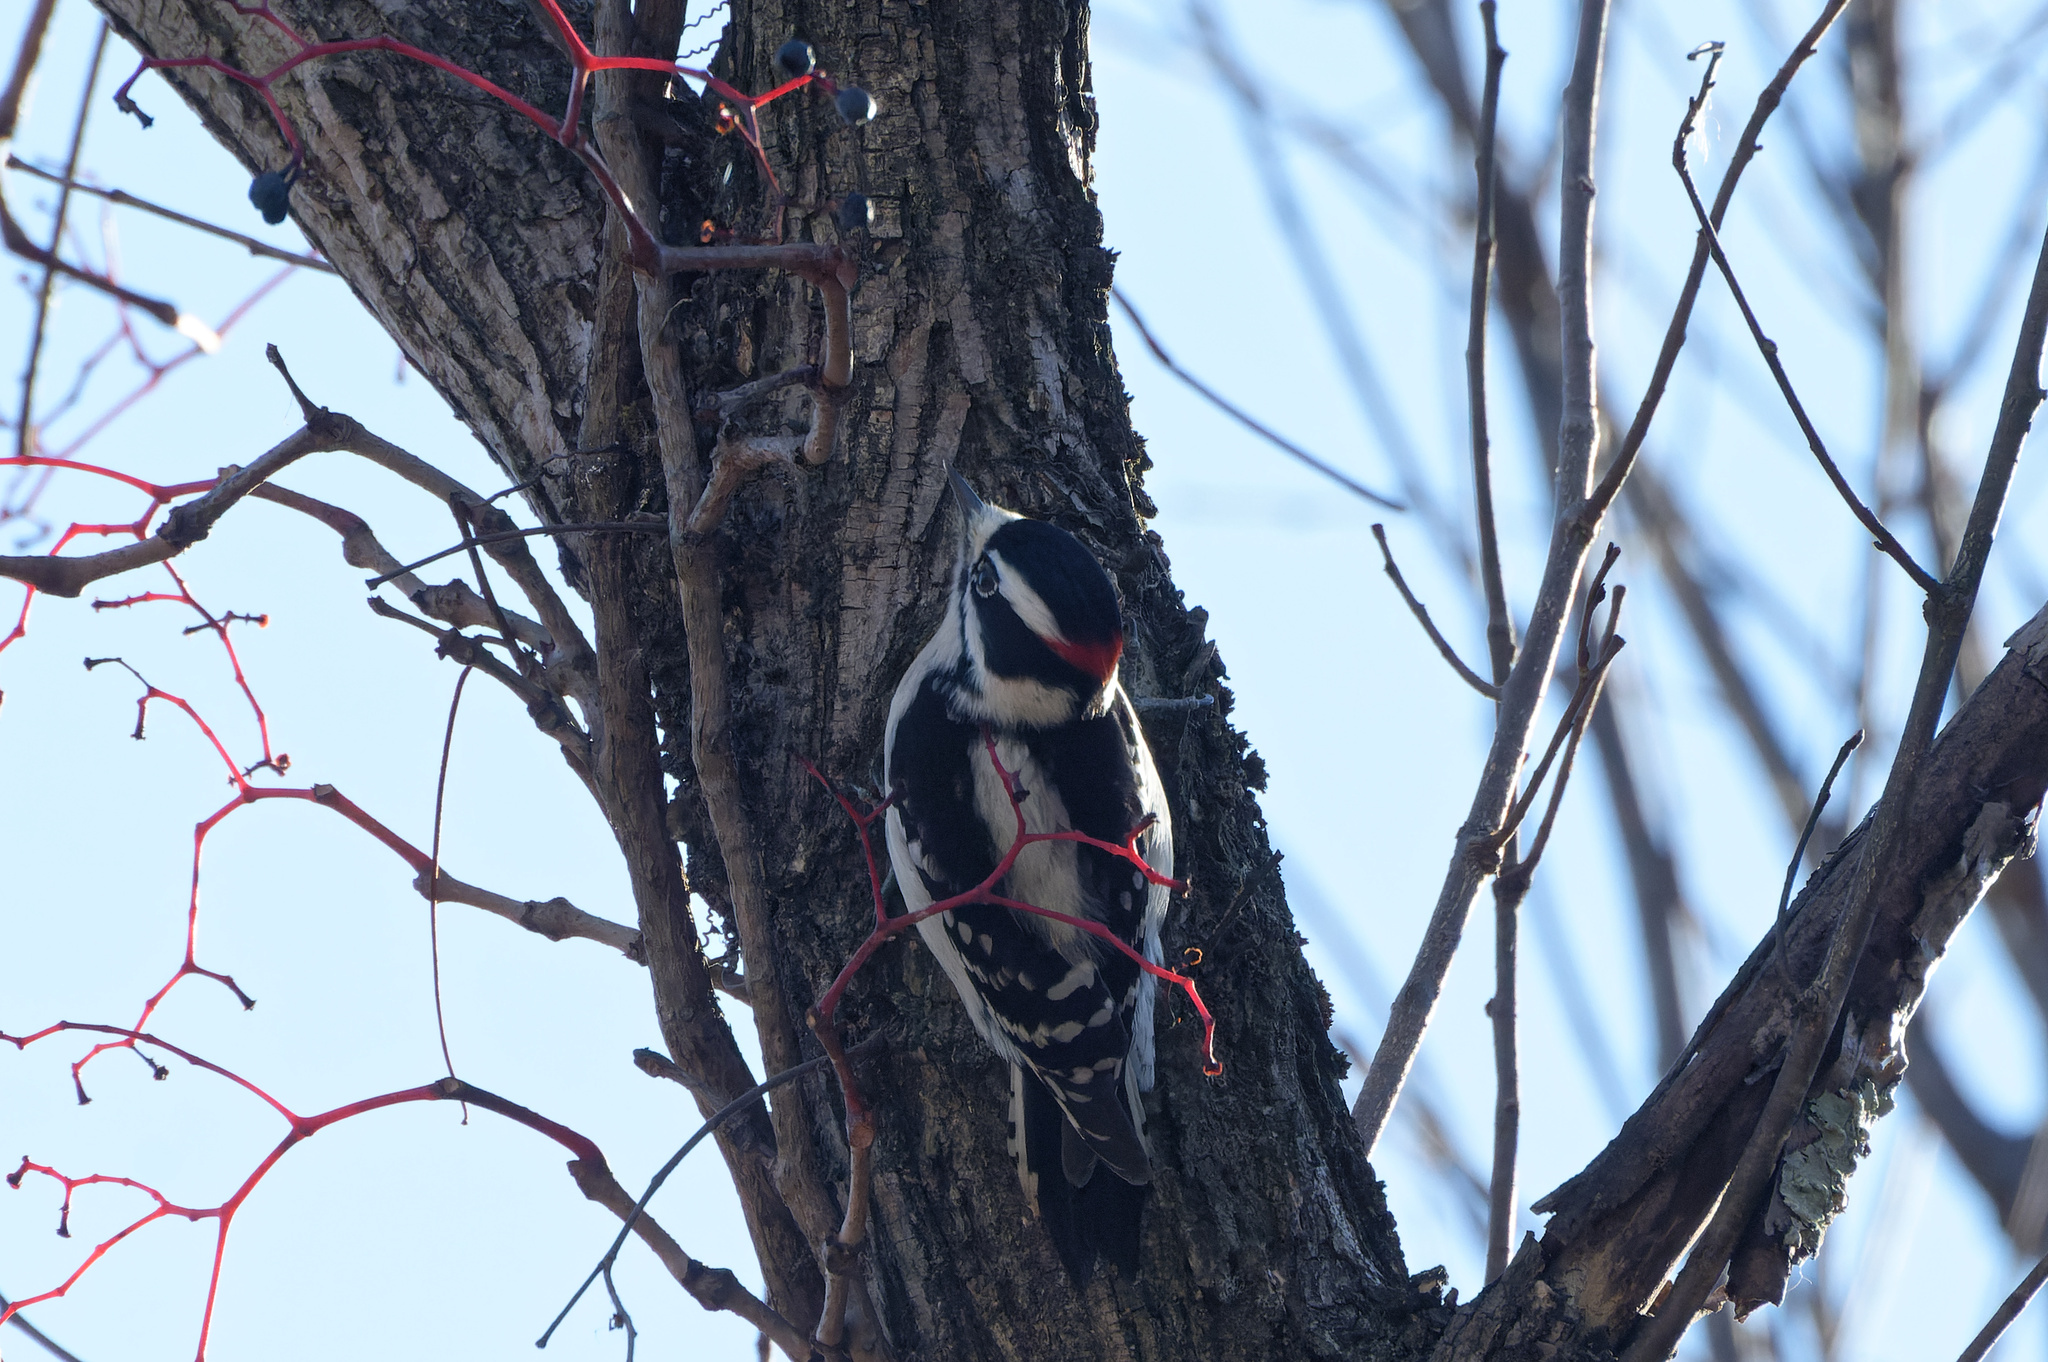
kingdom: Animalia
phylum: Chordata
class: Aves
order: Piciformes
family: Picidae
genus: Dryobates
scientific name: Dryobates pubescens
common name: Downy woodpecker
